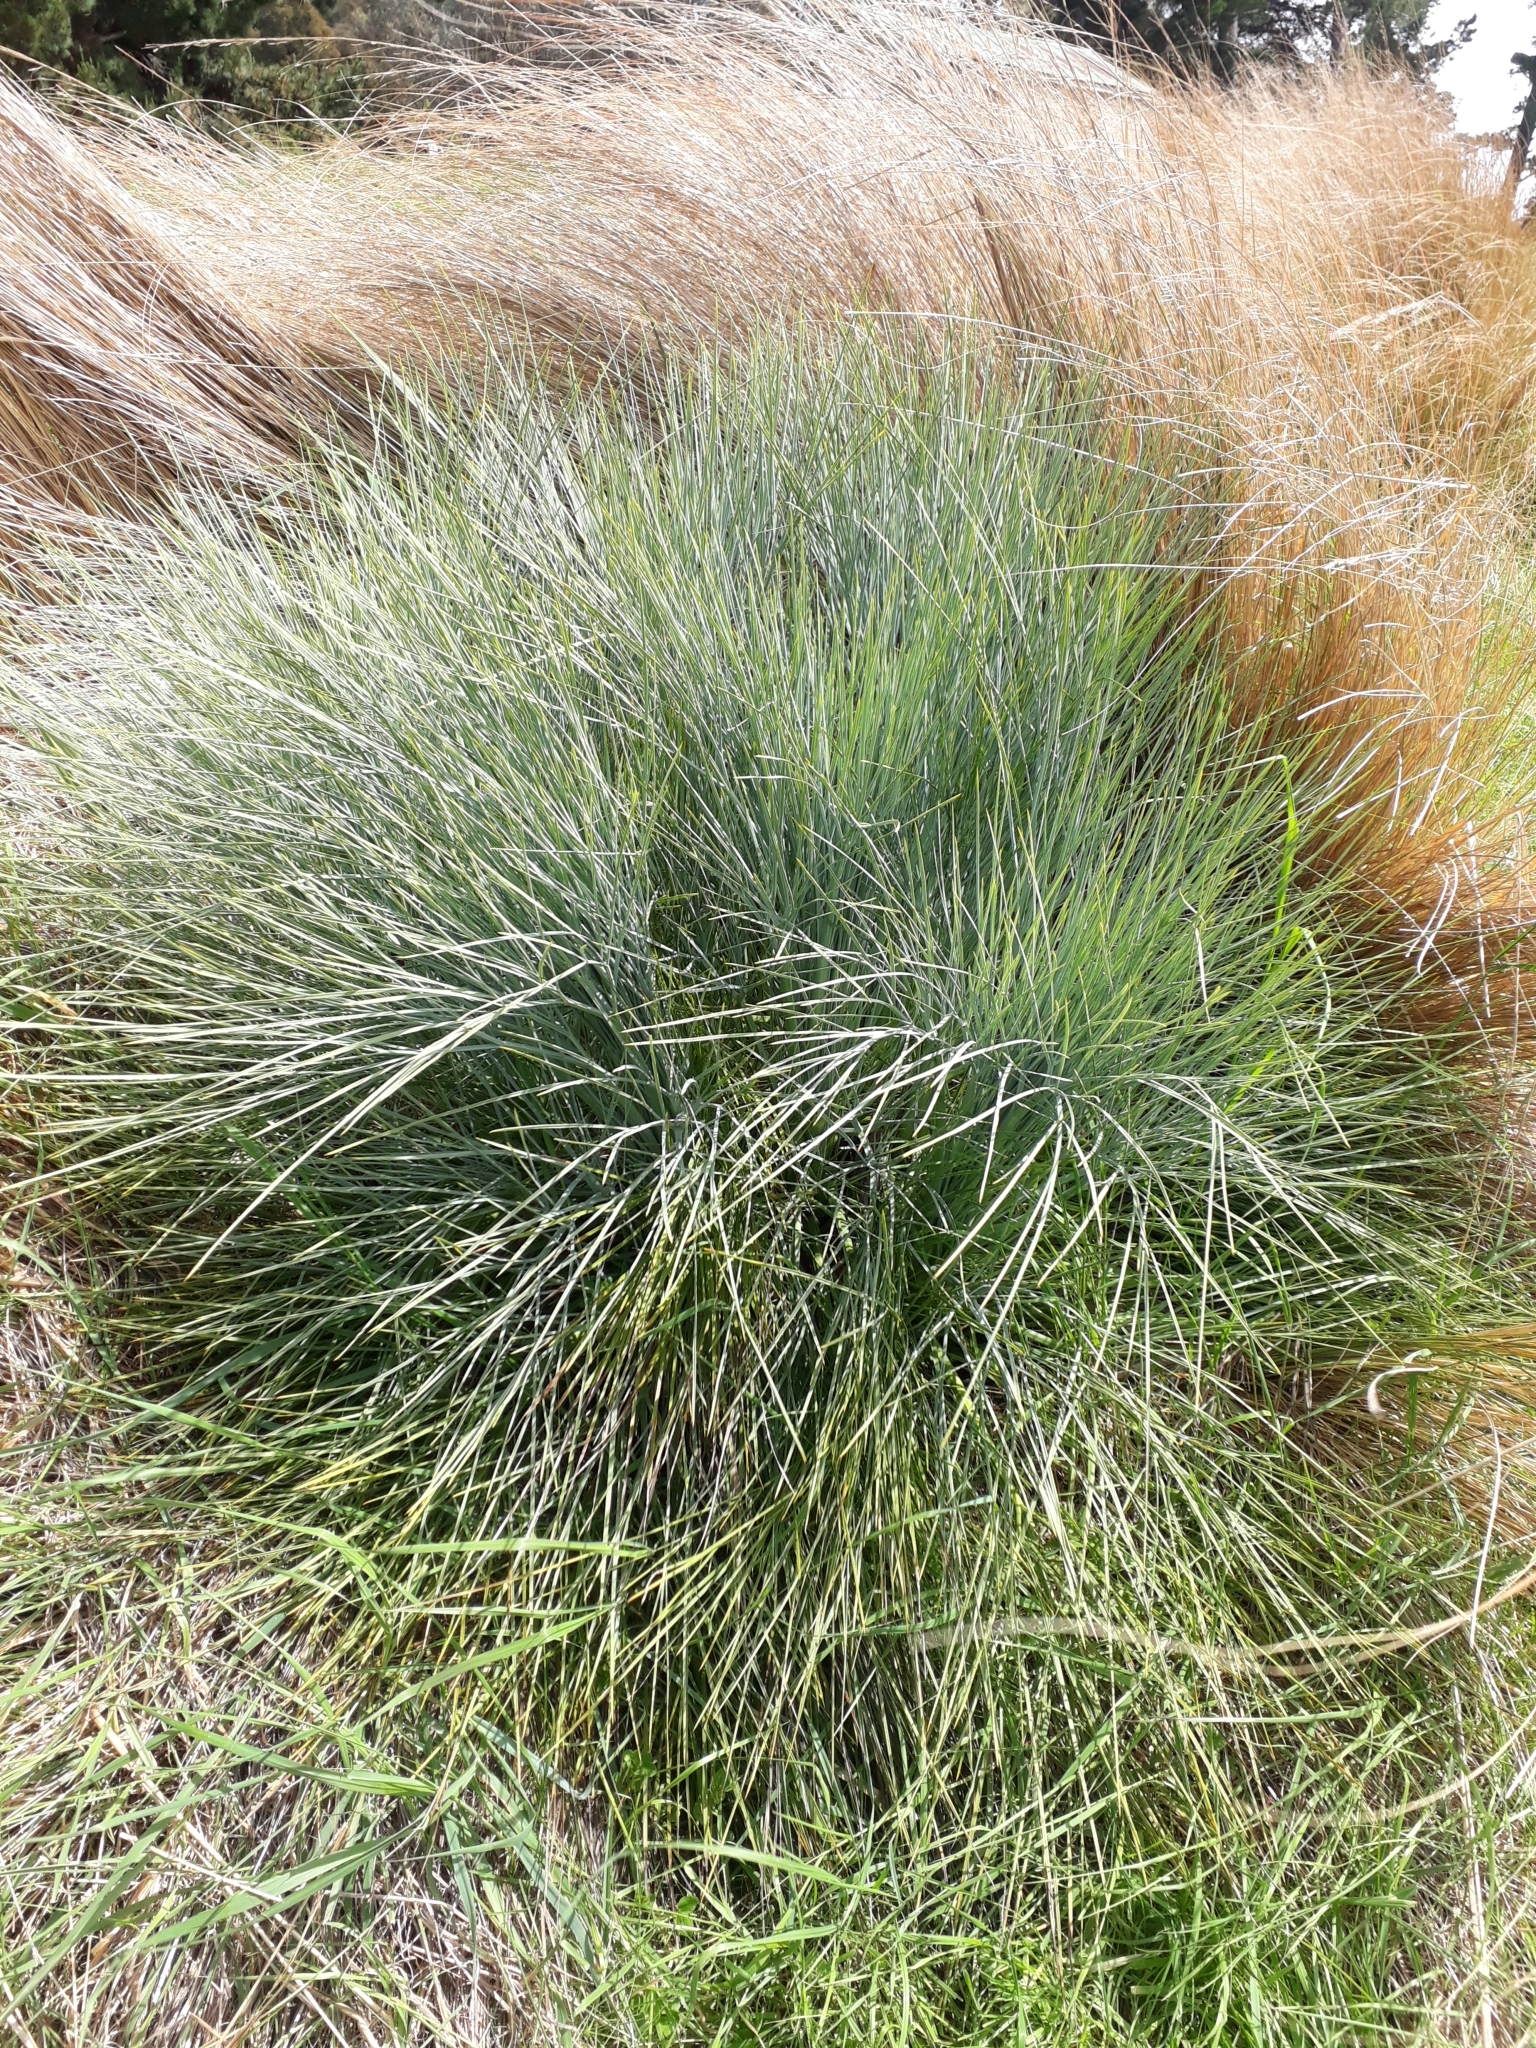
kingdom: Plantae
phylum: Tracheophyta
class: Magnoliopsida
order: Apiales
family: Apiaceae
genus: Aciphylla
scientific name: Aciphylla glaucescens
